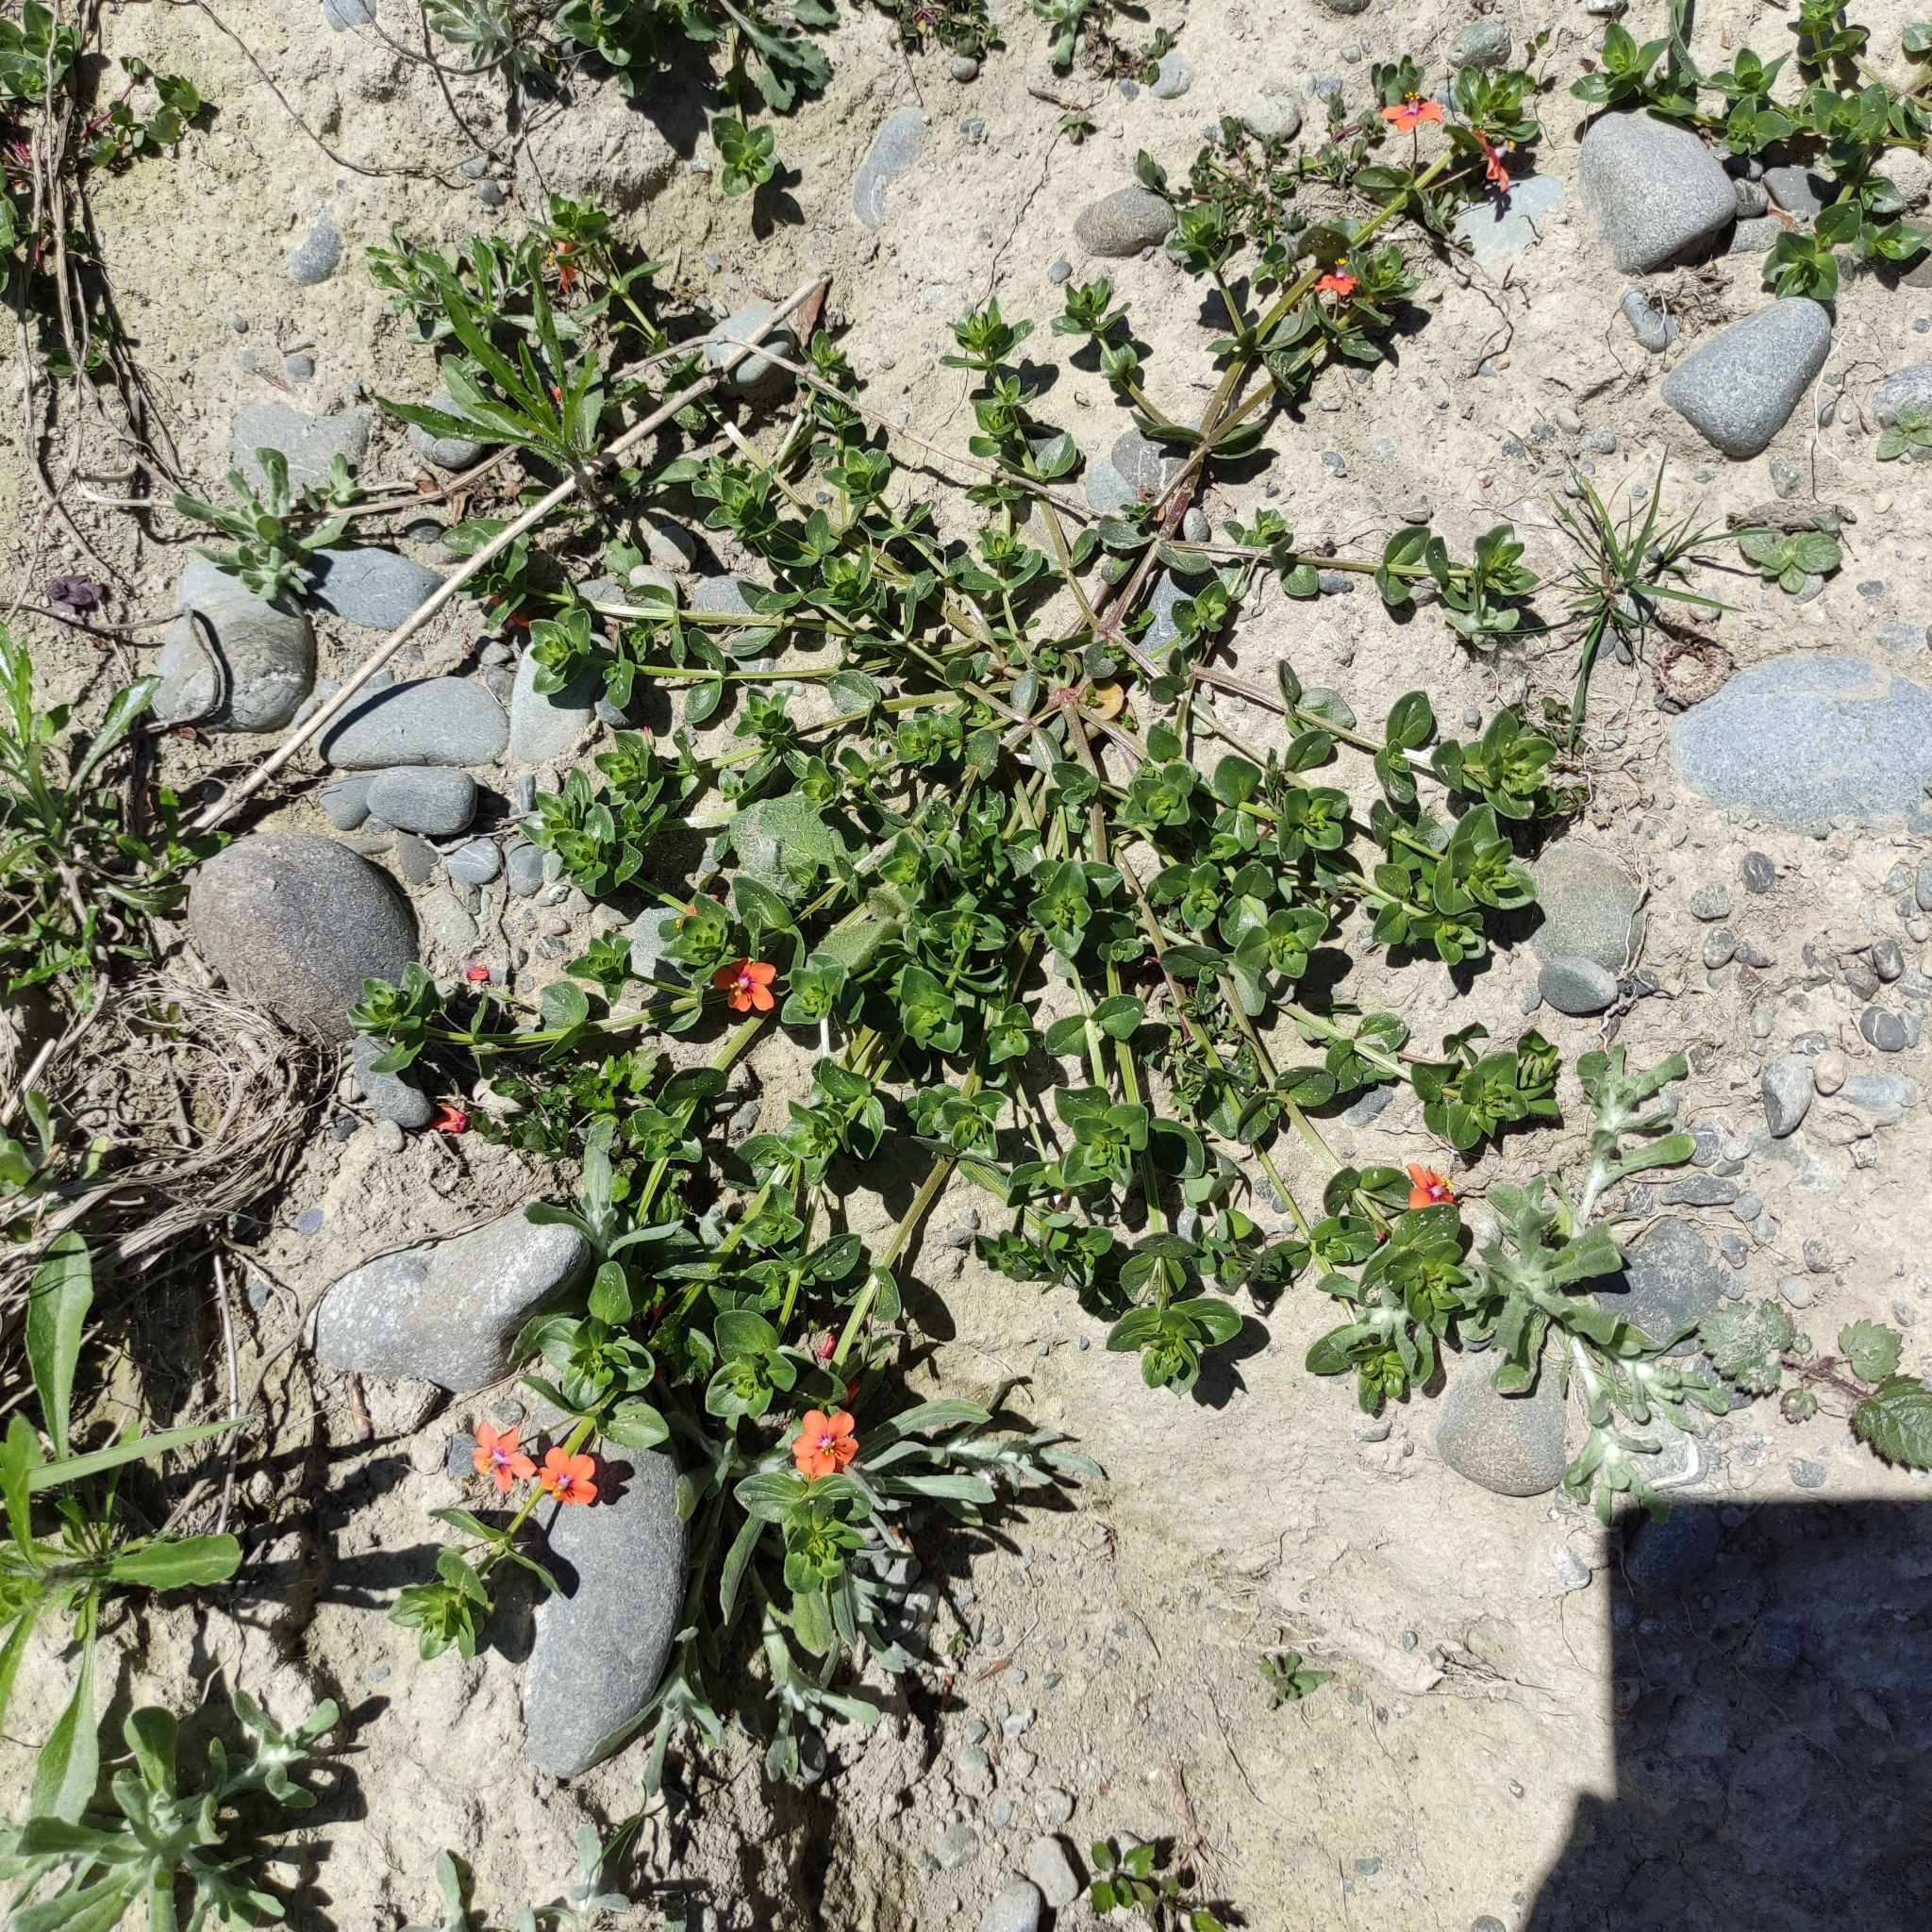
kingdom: Plantae
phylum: Tracheophyta
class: Magnoliopsida
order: Ericales
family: Primulaceae
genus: Lysimachia
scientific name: Lysimachia arvensis
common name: Scarlet pimpernel
